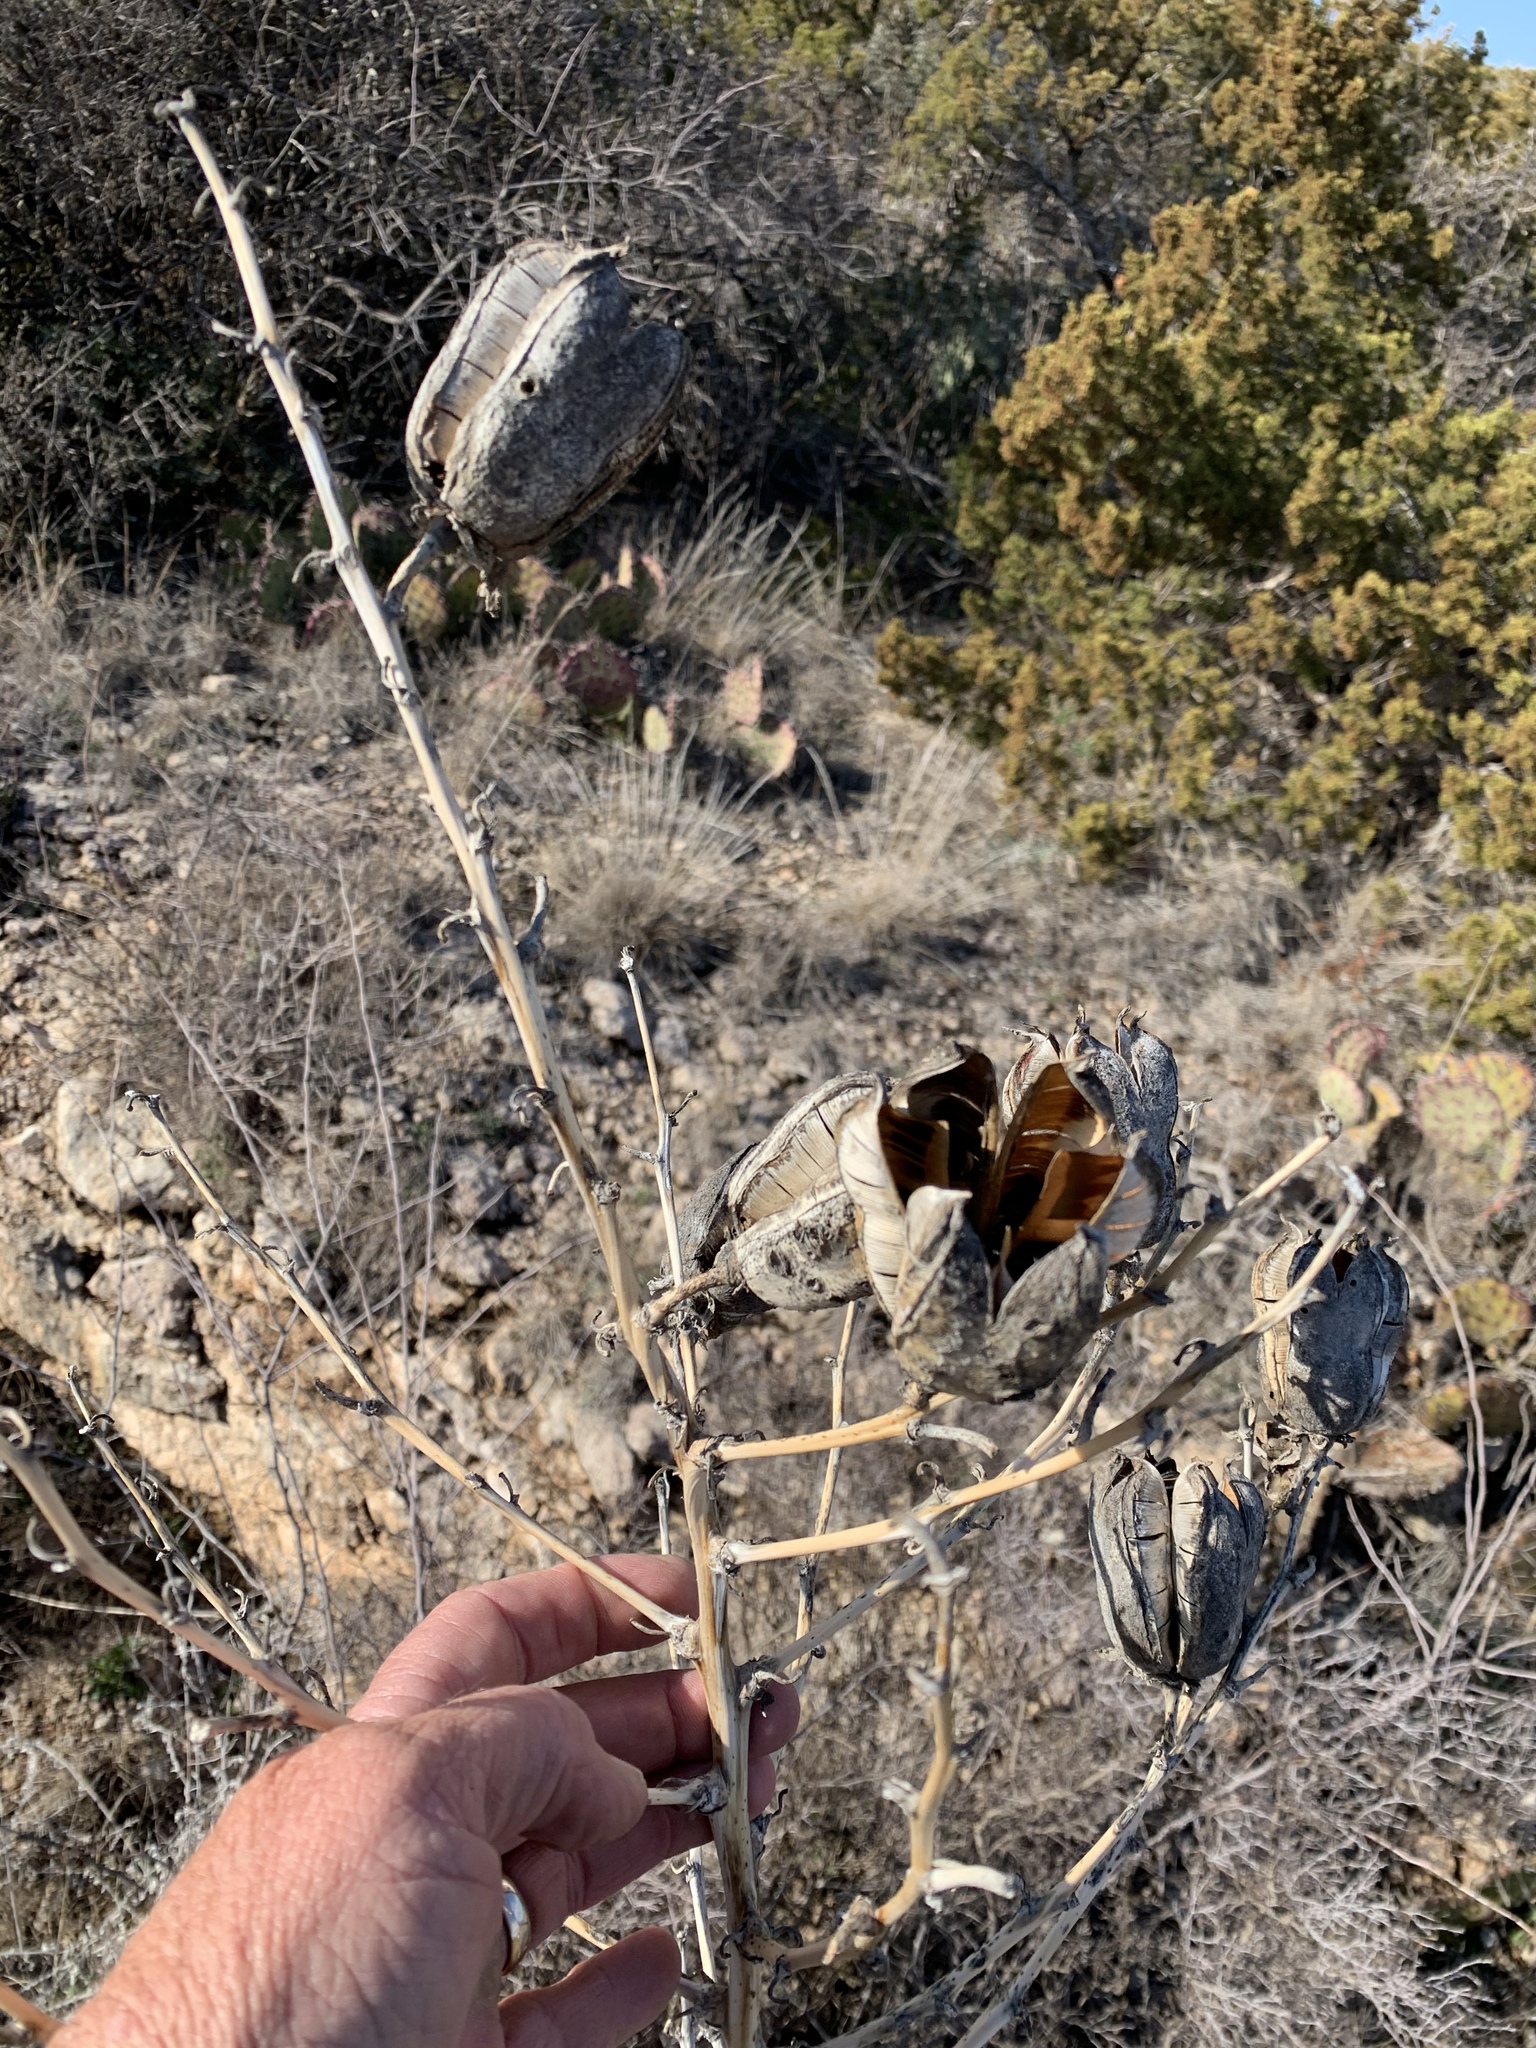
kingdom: Plantae
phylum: Tracheophyta
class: Liliopsida
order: Asparagales
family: Asparagaceae
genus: Yucca
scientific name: Yucca campestris
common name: Plains yucca
